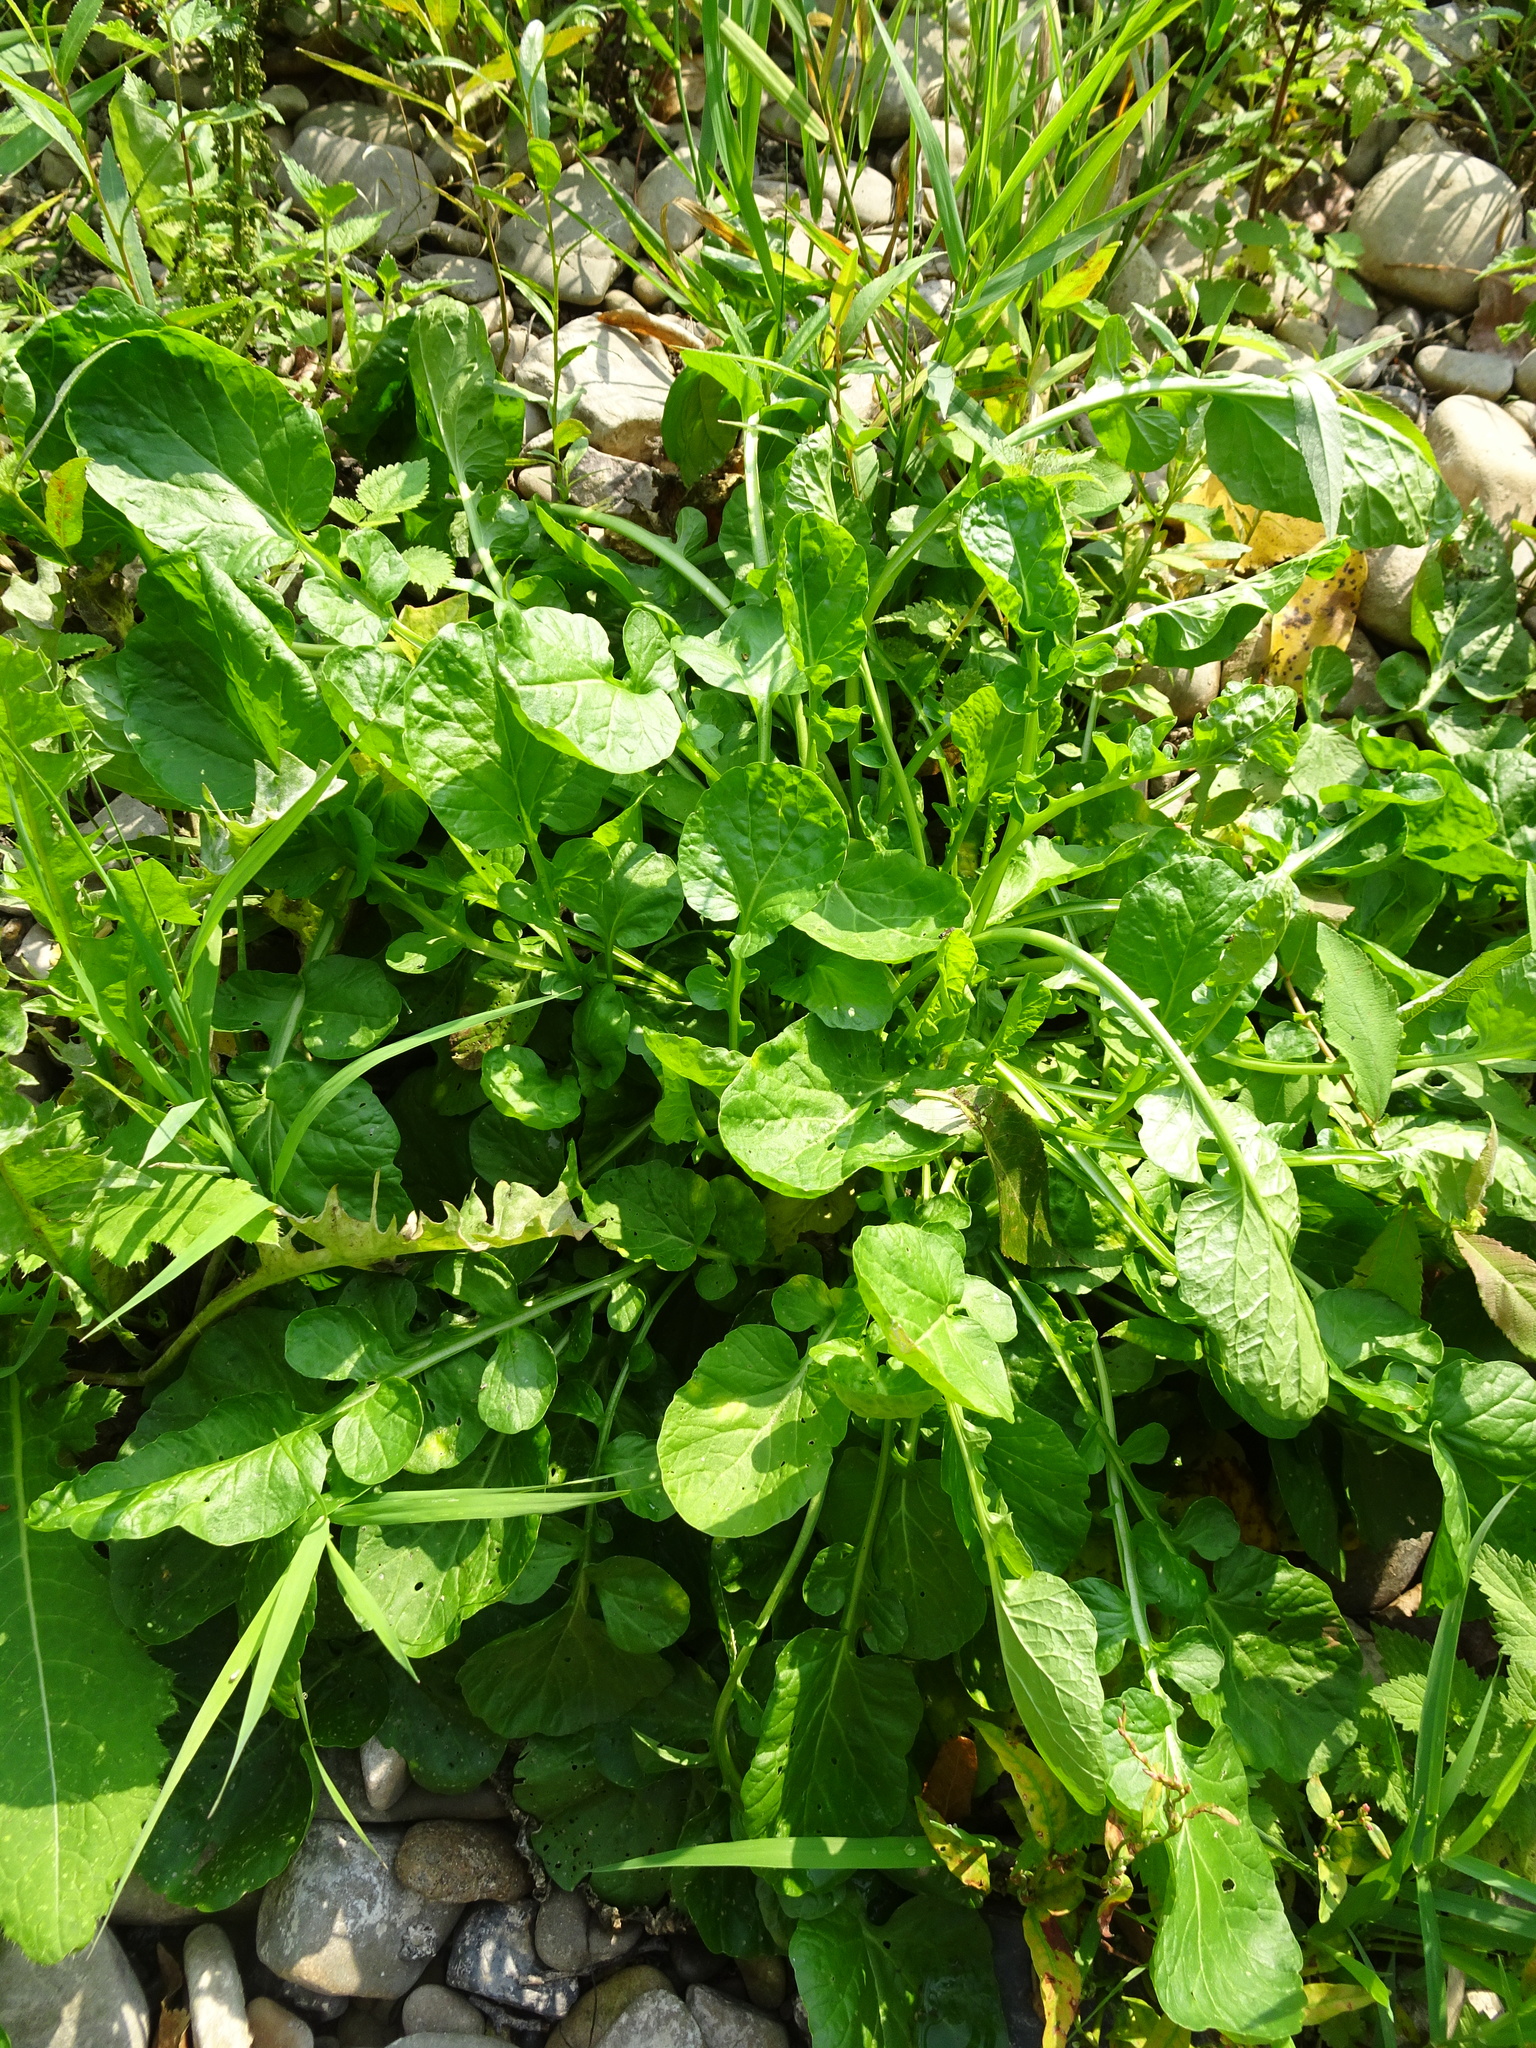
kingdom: Plantae
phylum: Tracheophyta
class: Magnoliopsida
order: Brassicales
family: Brassicaceae
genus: Barbarea
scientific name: Barbarea vulgaris
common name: Cressy-greens
